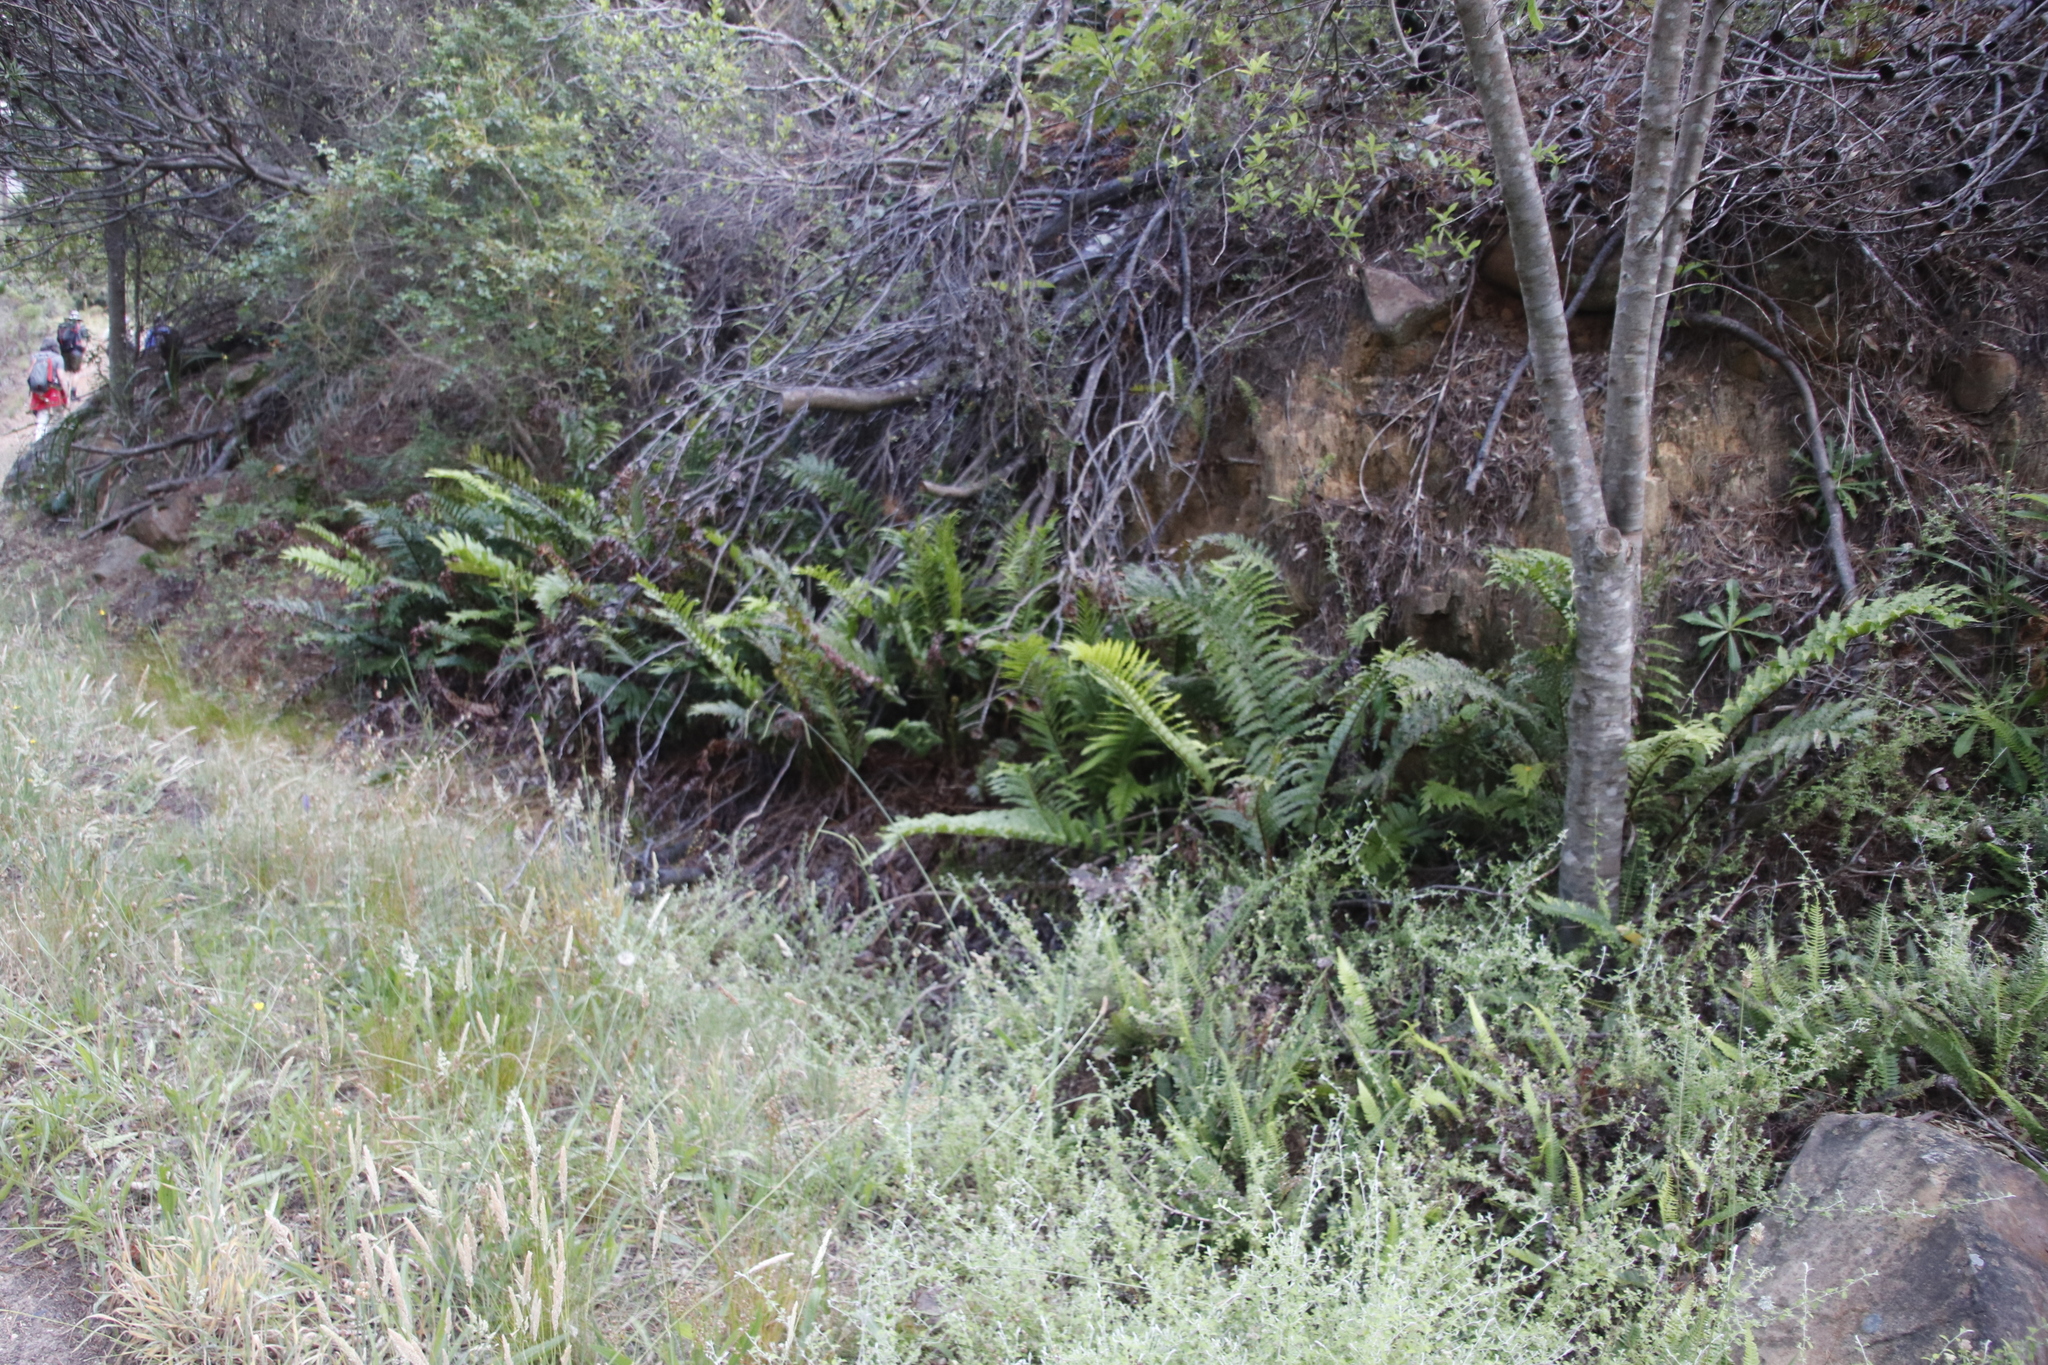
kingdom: Plantae
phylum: Tracheophyta
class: Polypodiopsida
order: Polypodiales
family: Blechnaceae
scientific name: Blechnaceae
